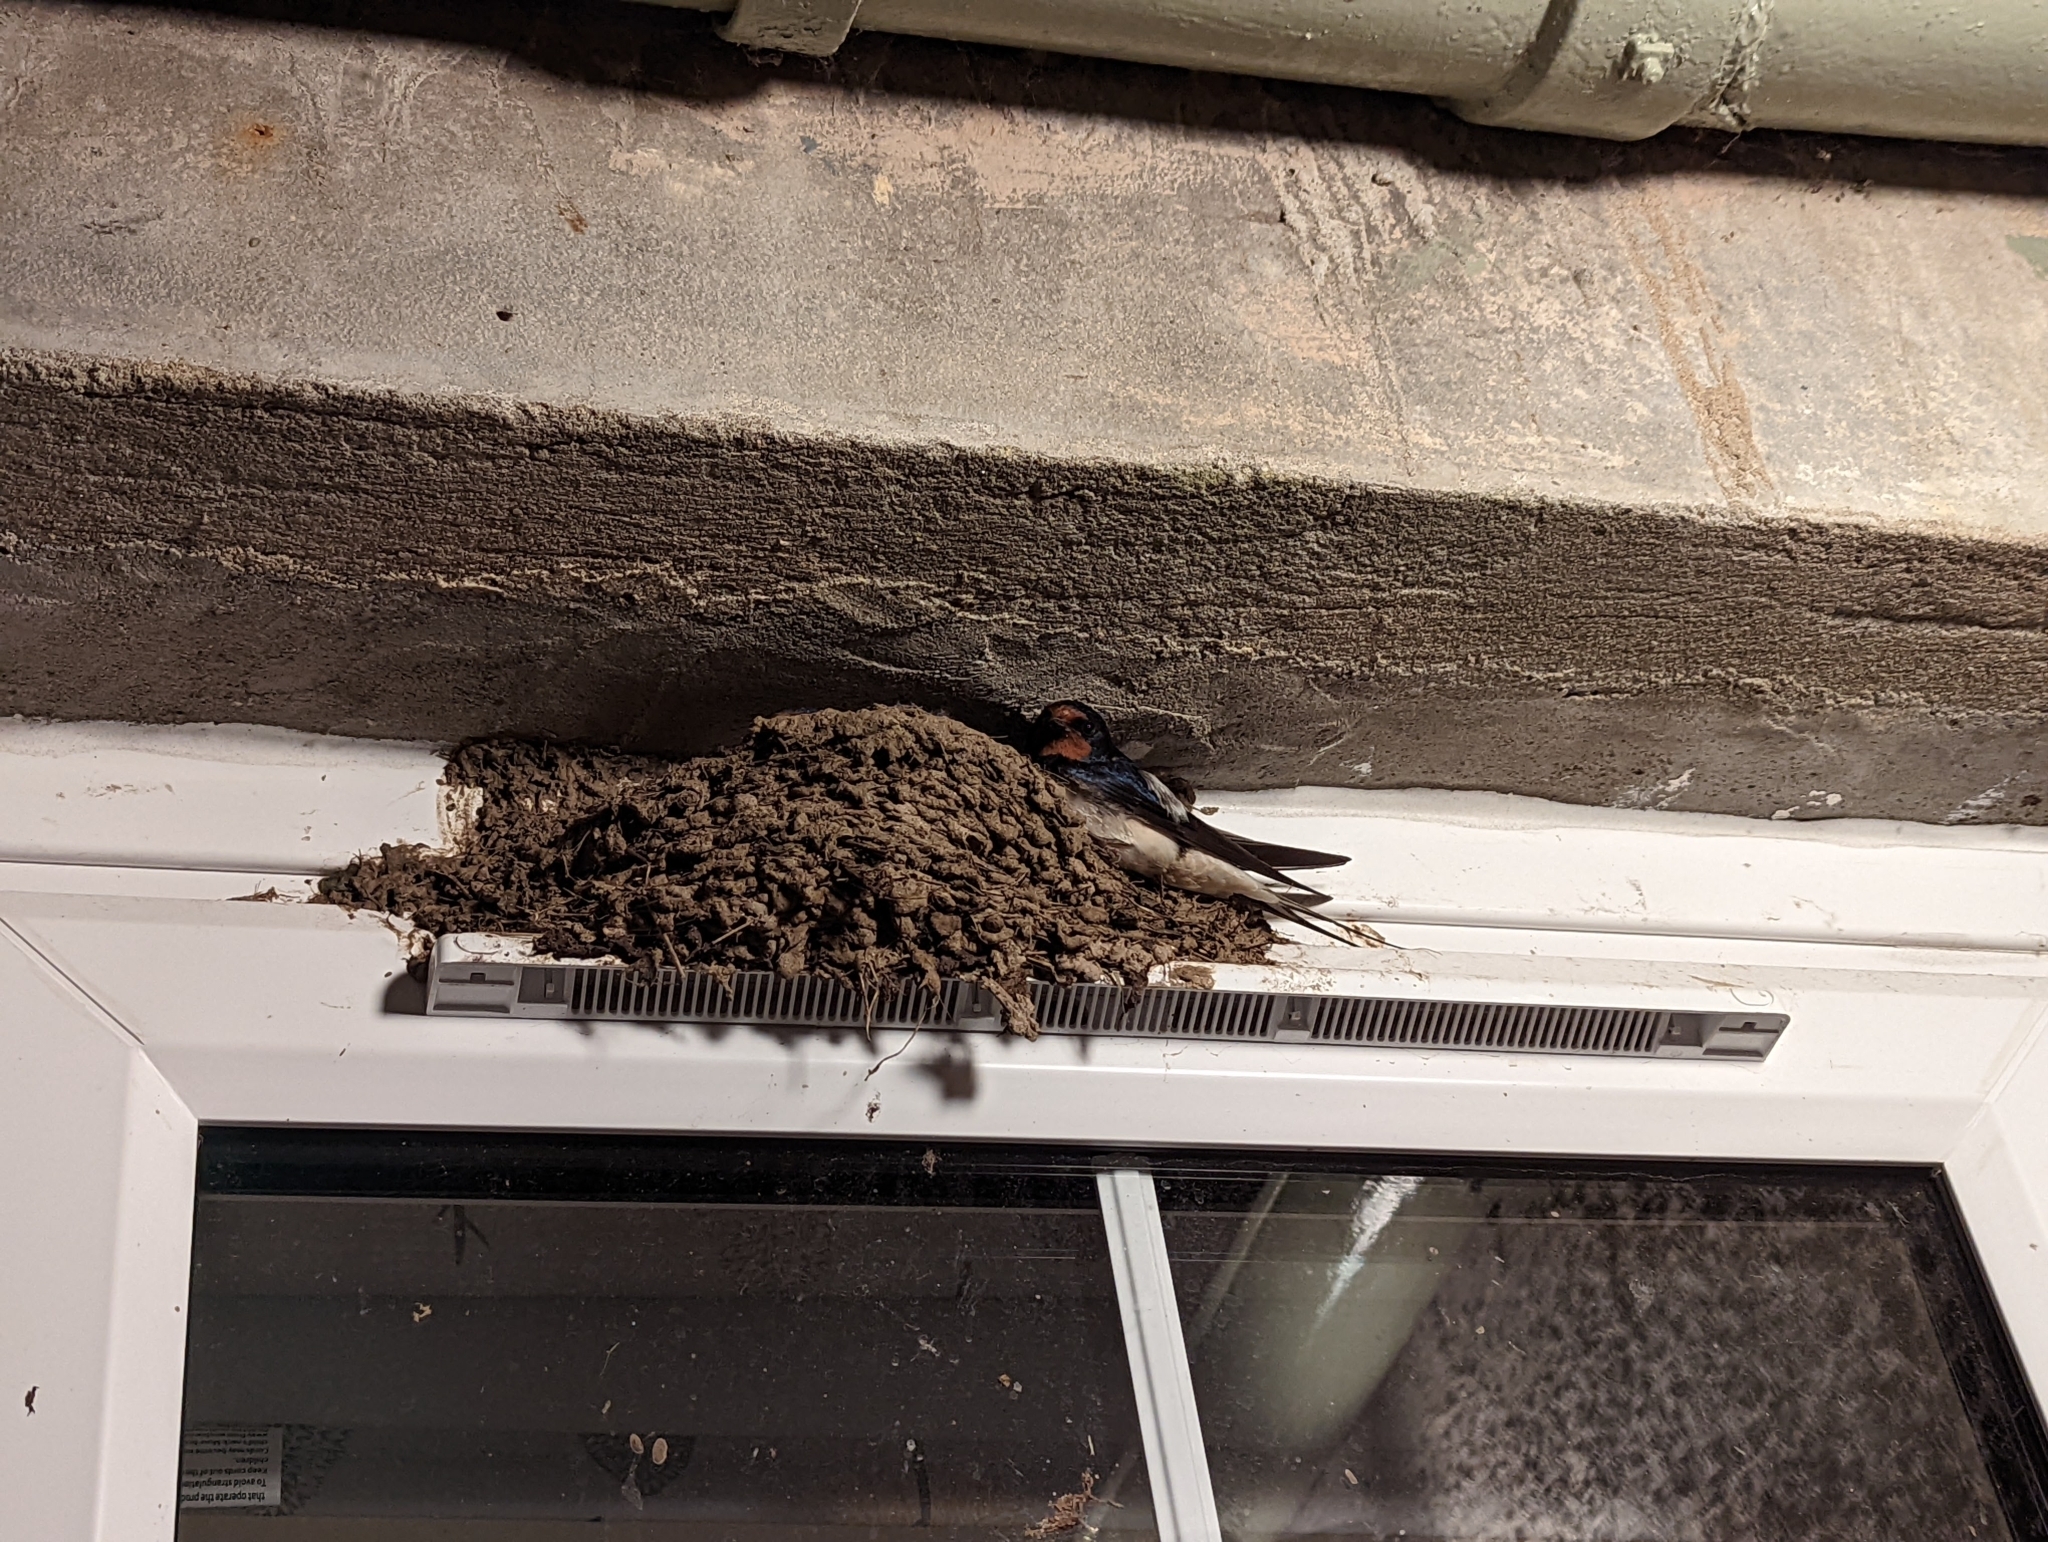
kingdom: Animalia
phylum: Chordata
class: Aves
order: Passeriformes
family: Hirundinidae
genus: Hirundo
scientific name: Hirundo rustica
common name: Barn swallow
